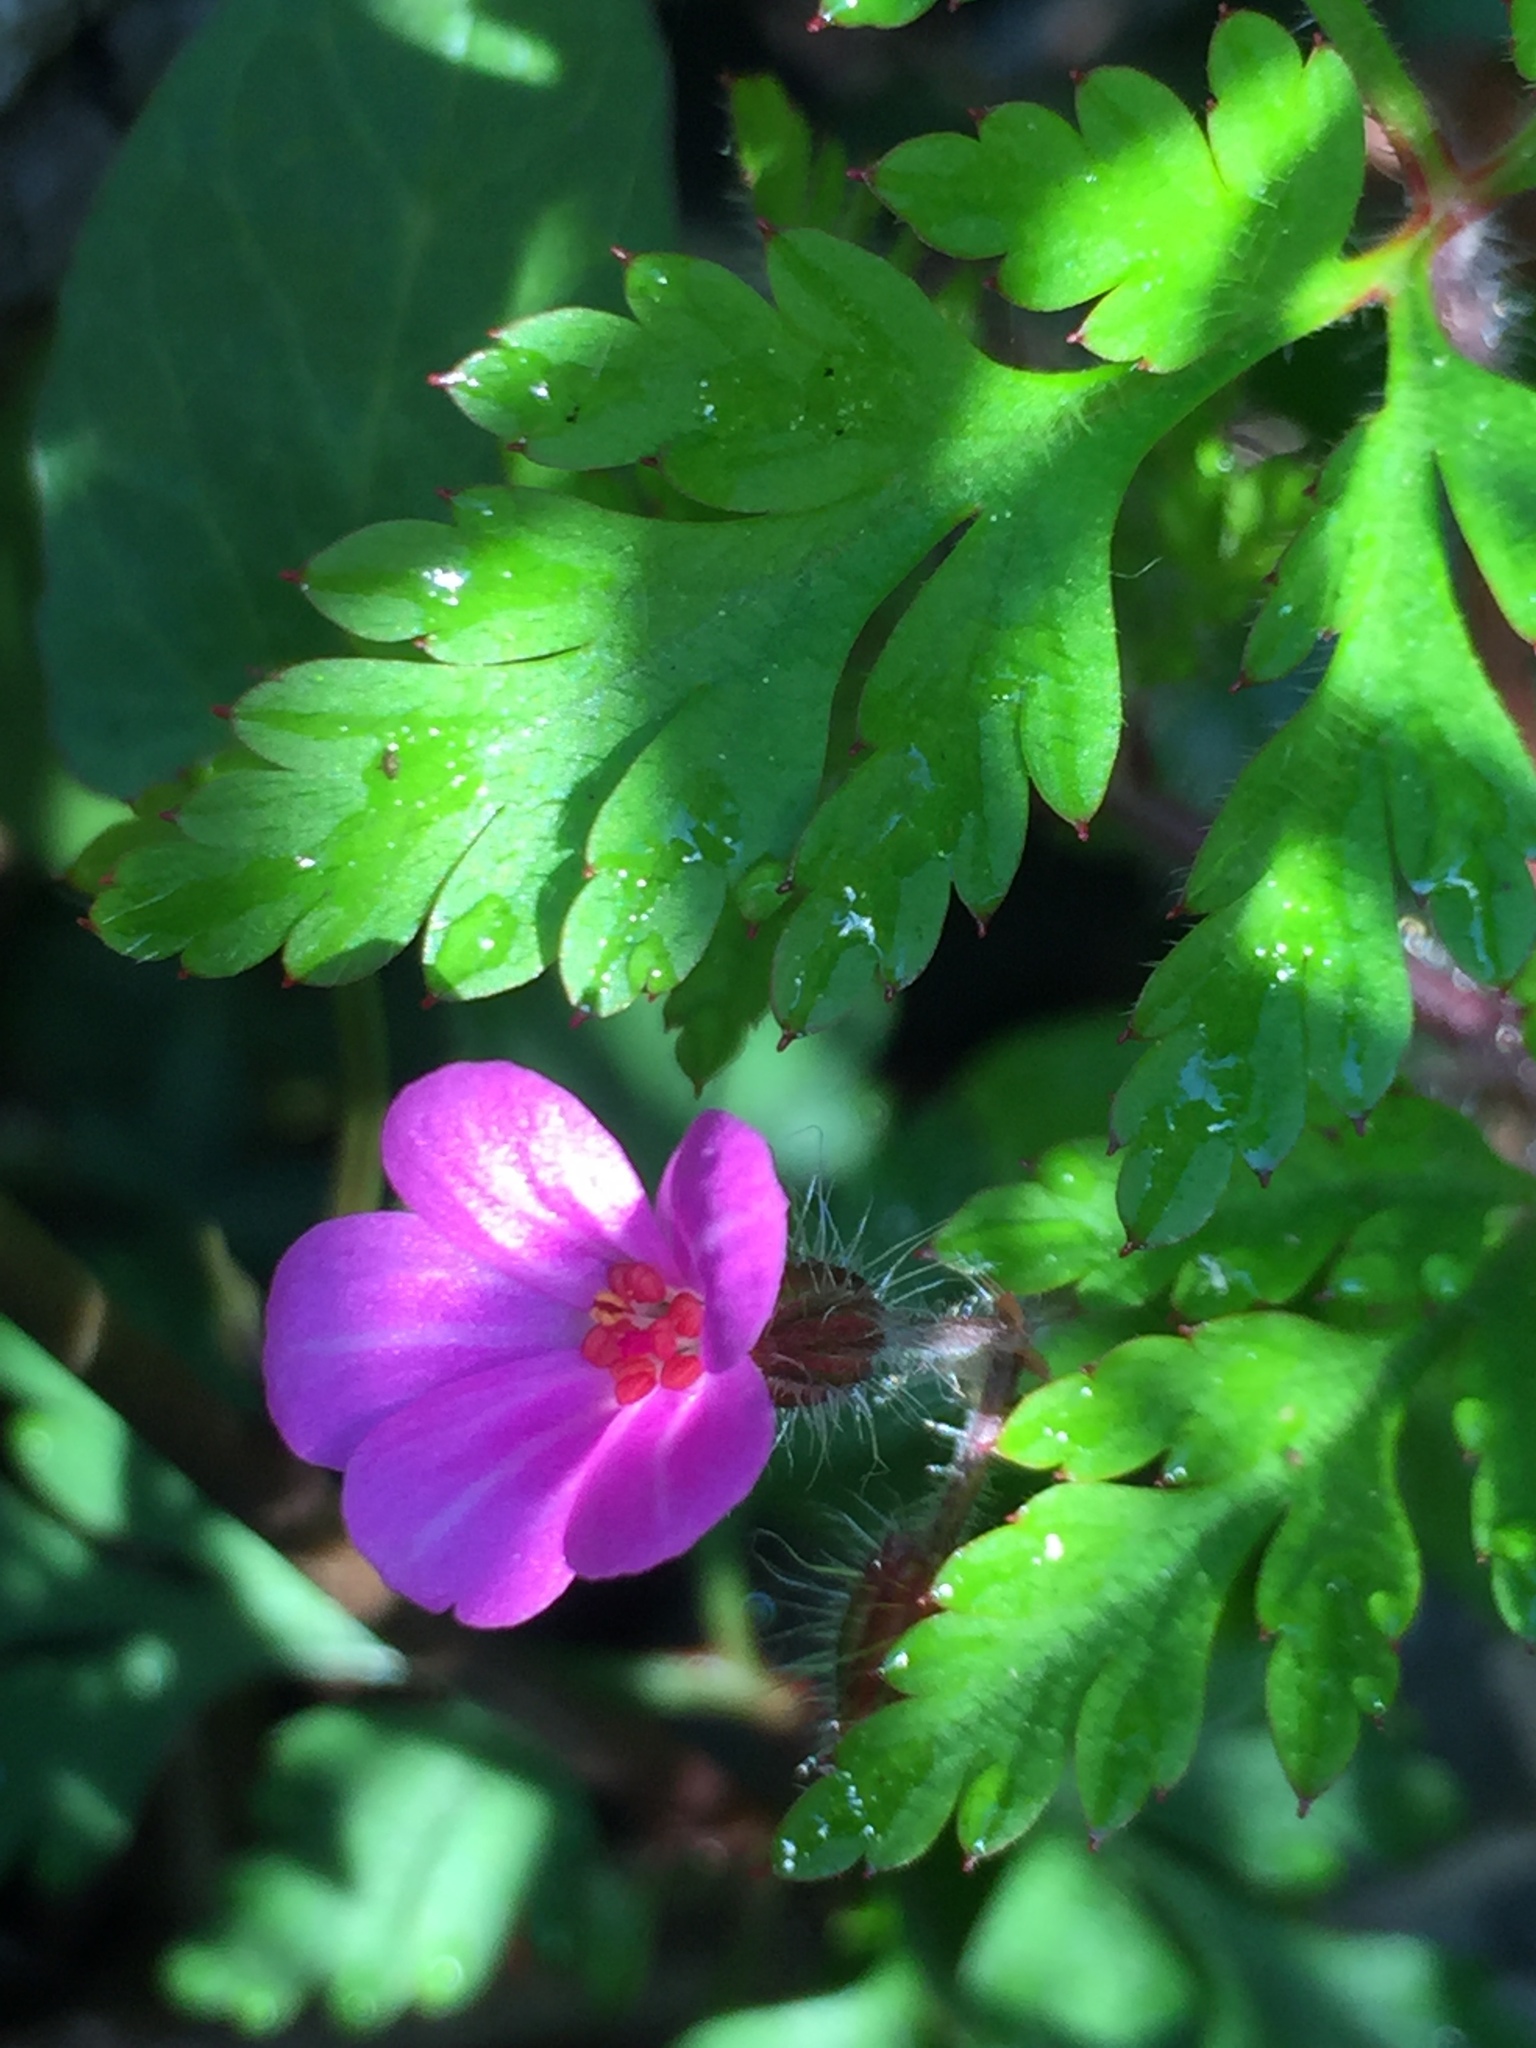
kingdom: Plantae
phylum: Tracheophyta
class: Magnoliopsida
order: Geraniales
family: Geraniaceae
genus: Geranium
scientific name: Geranium robertianum
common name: Herb-robert
